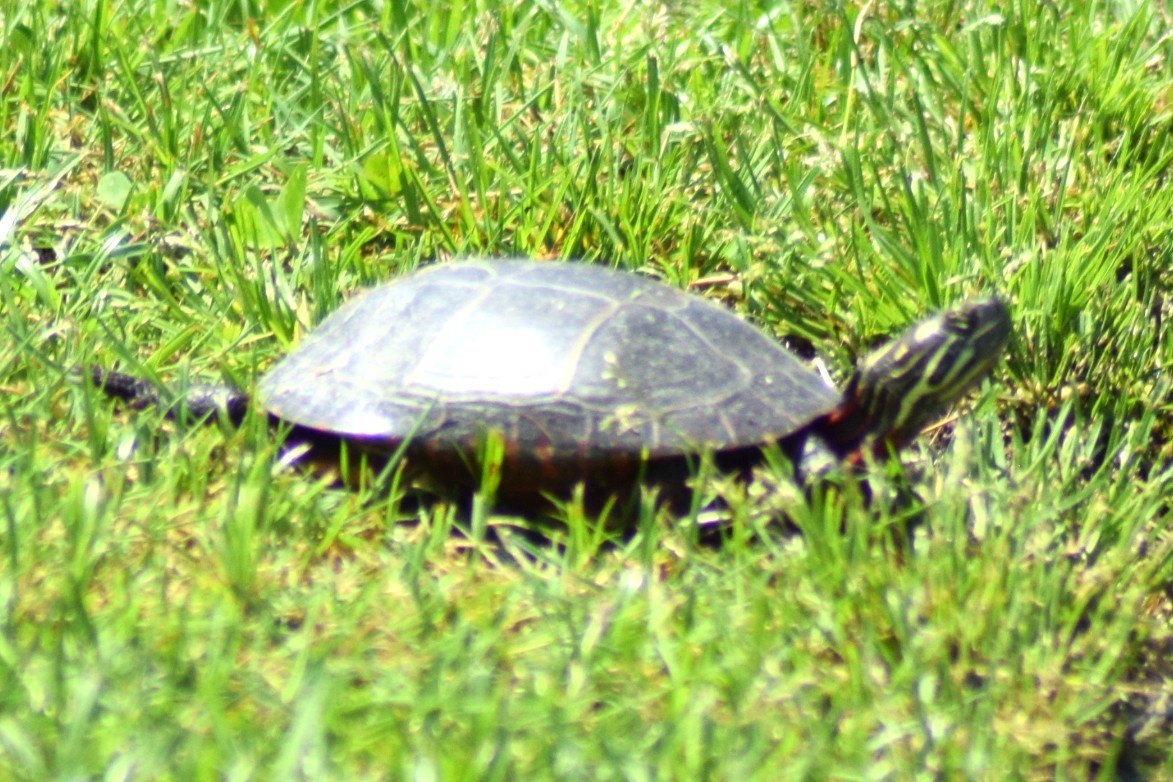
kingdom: Animalia
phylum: Chordata
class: Testudines
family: Emydidae
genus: Chrysemys
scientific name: Chrysemys picta
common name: Painted turtle
